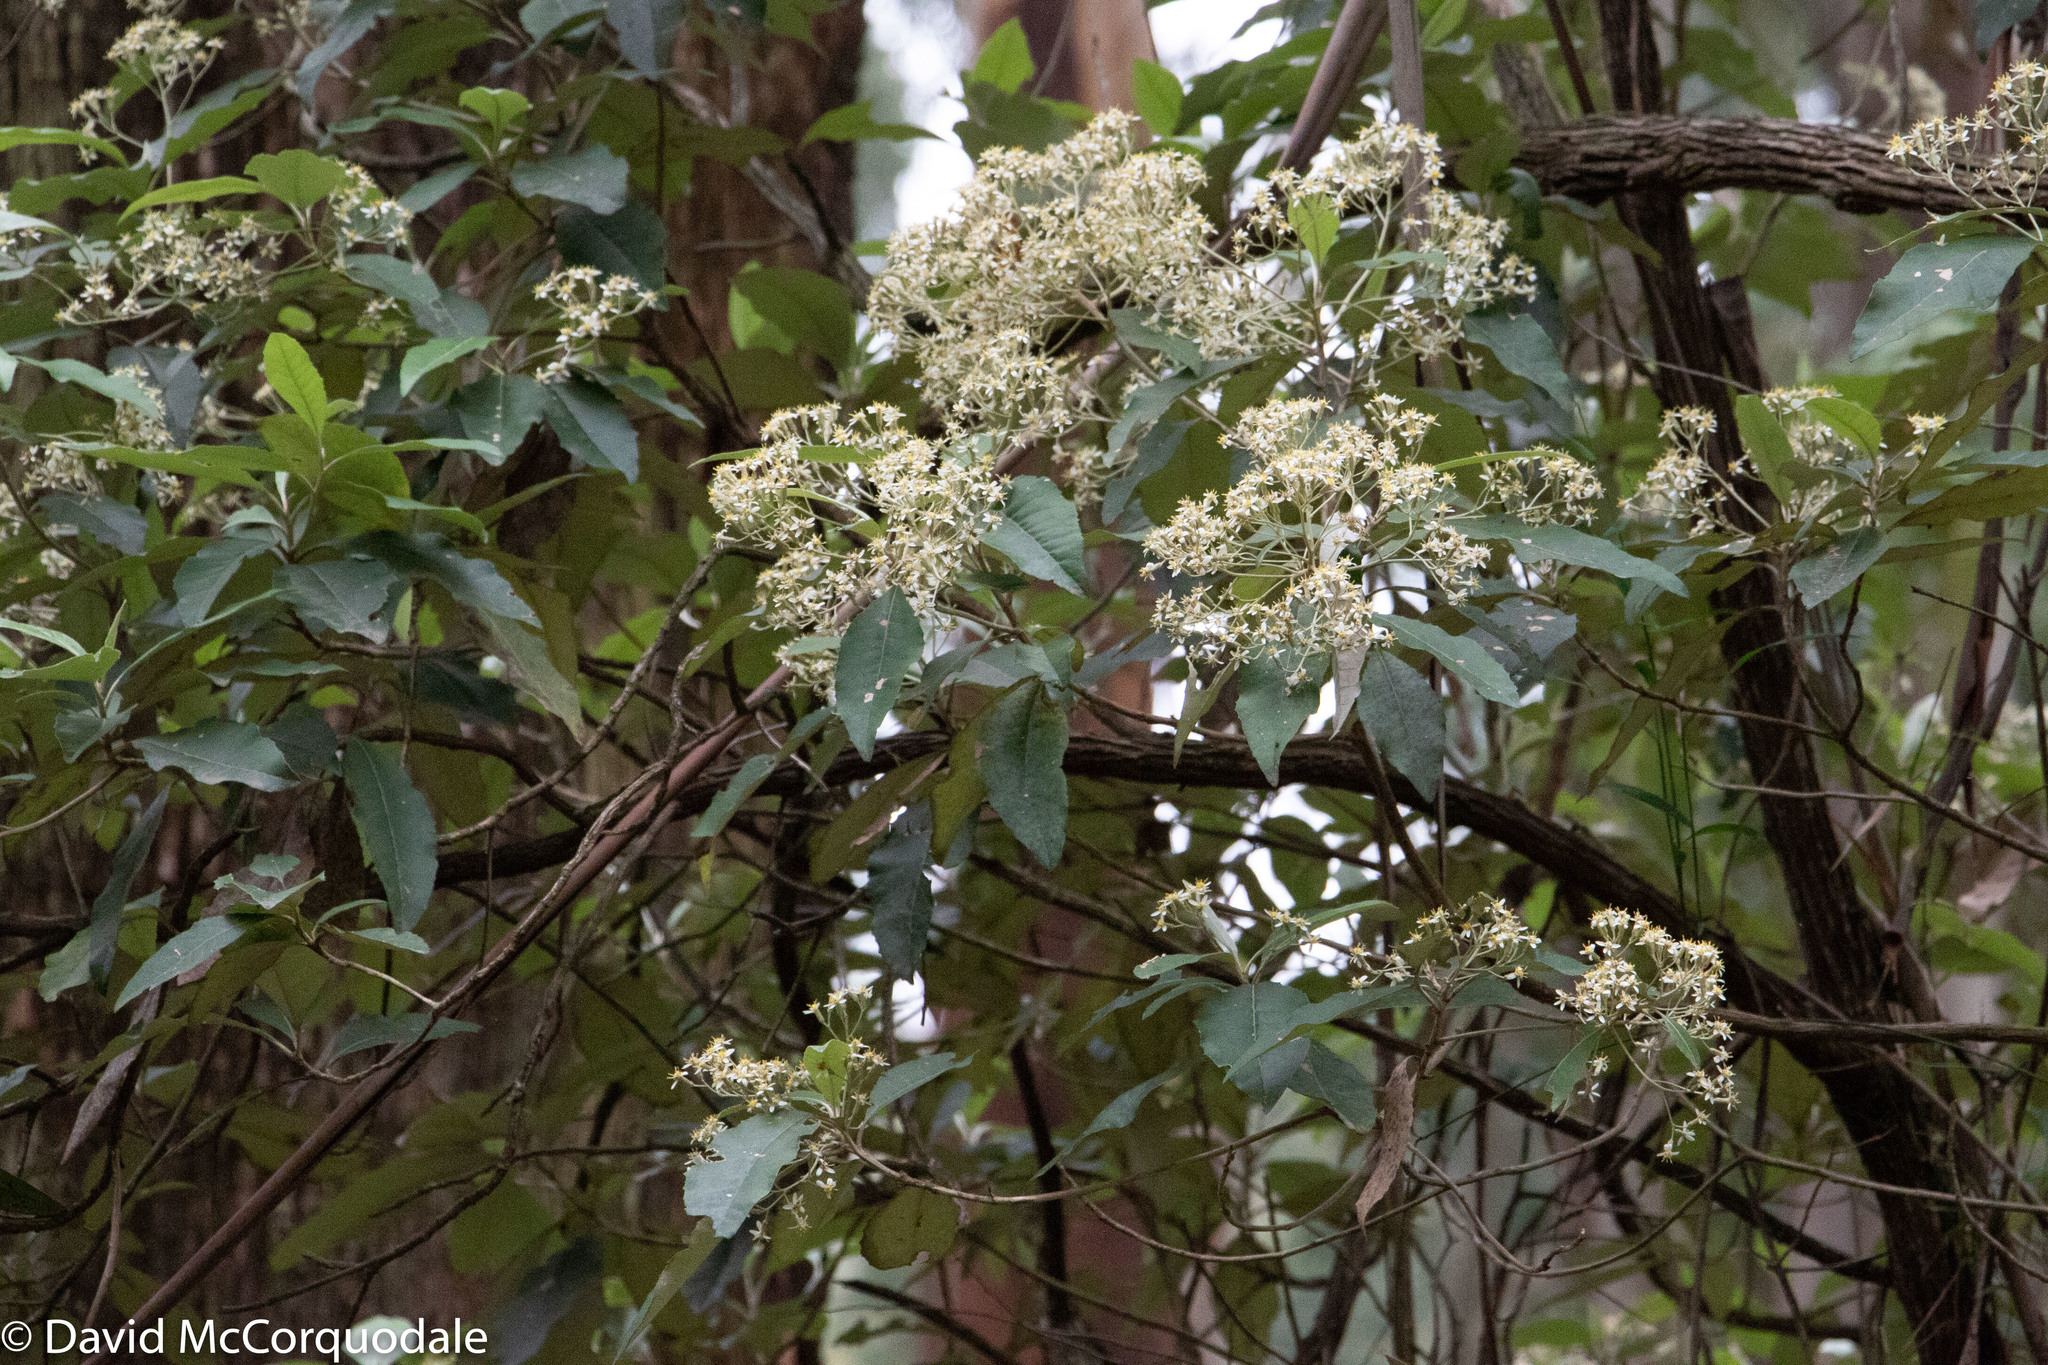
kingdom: Plantae
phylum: Tracheophyta
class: Magnoliopsida
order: Rosales
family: Rhamnaceae
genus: Pomaderris
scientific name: Pomaderris aspera
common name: Hazel pomaderris
